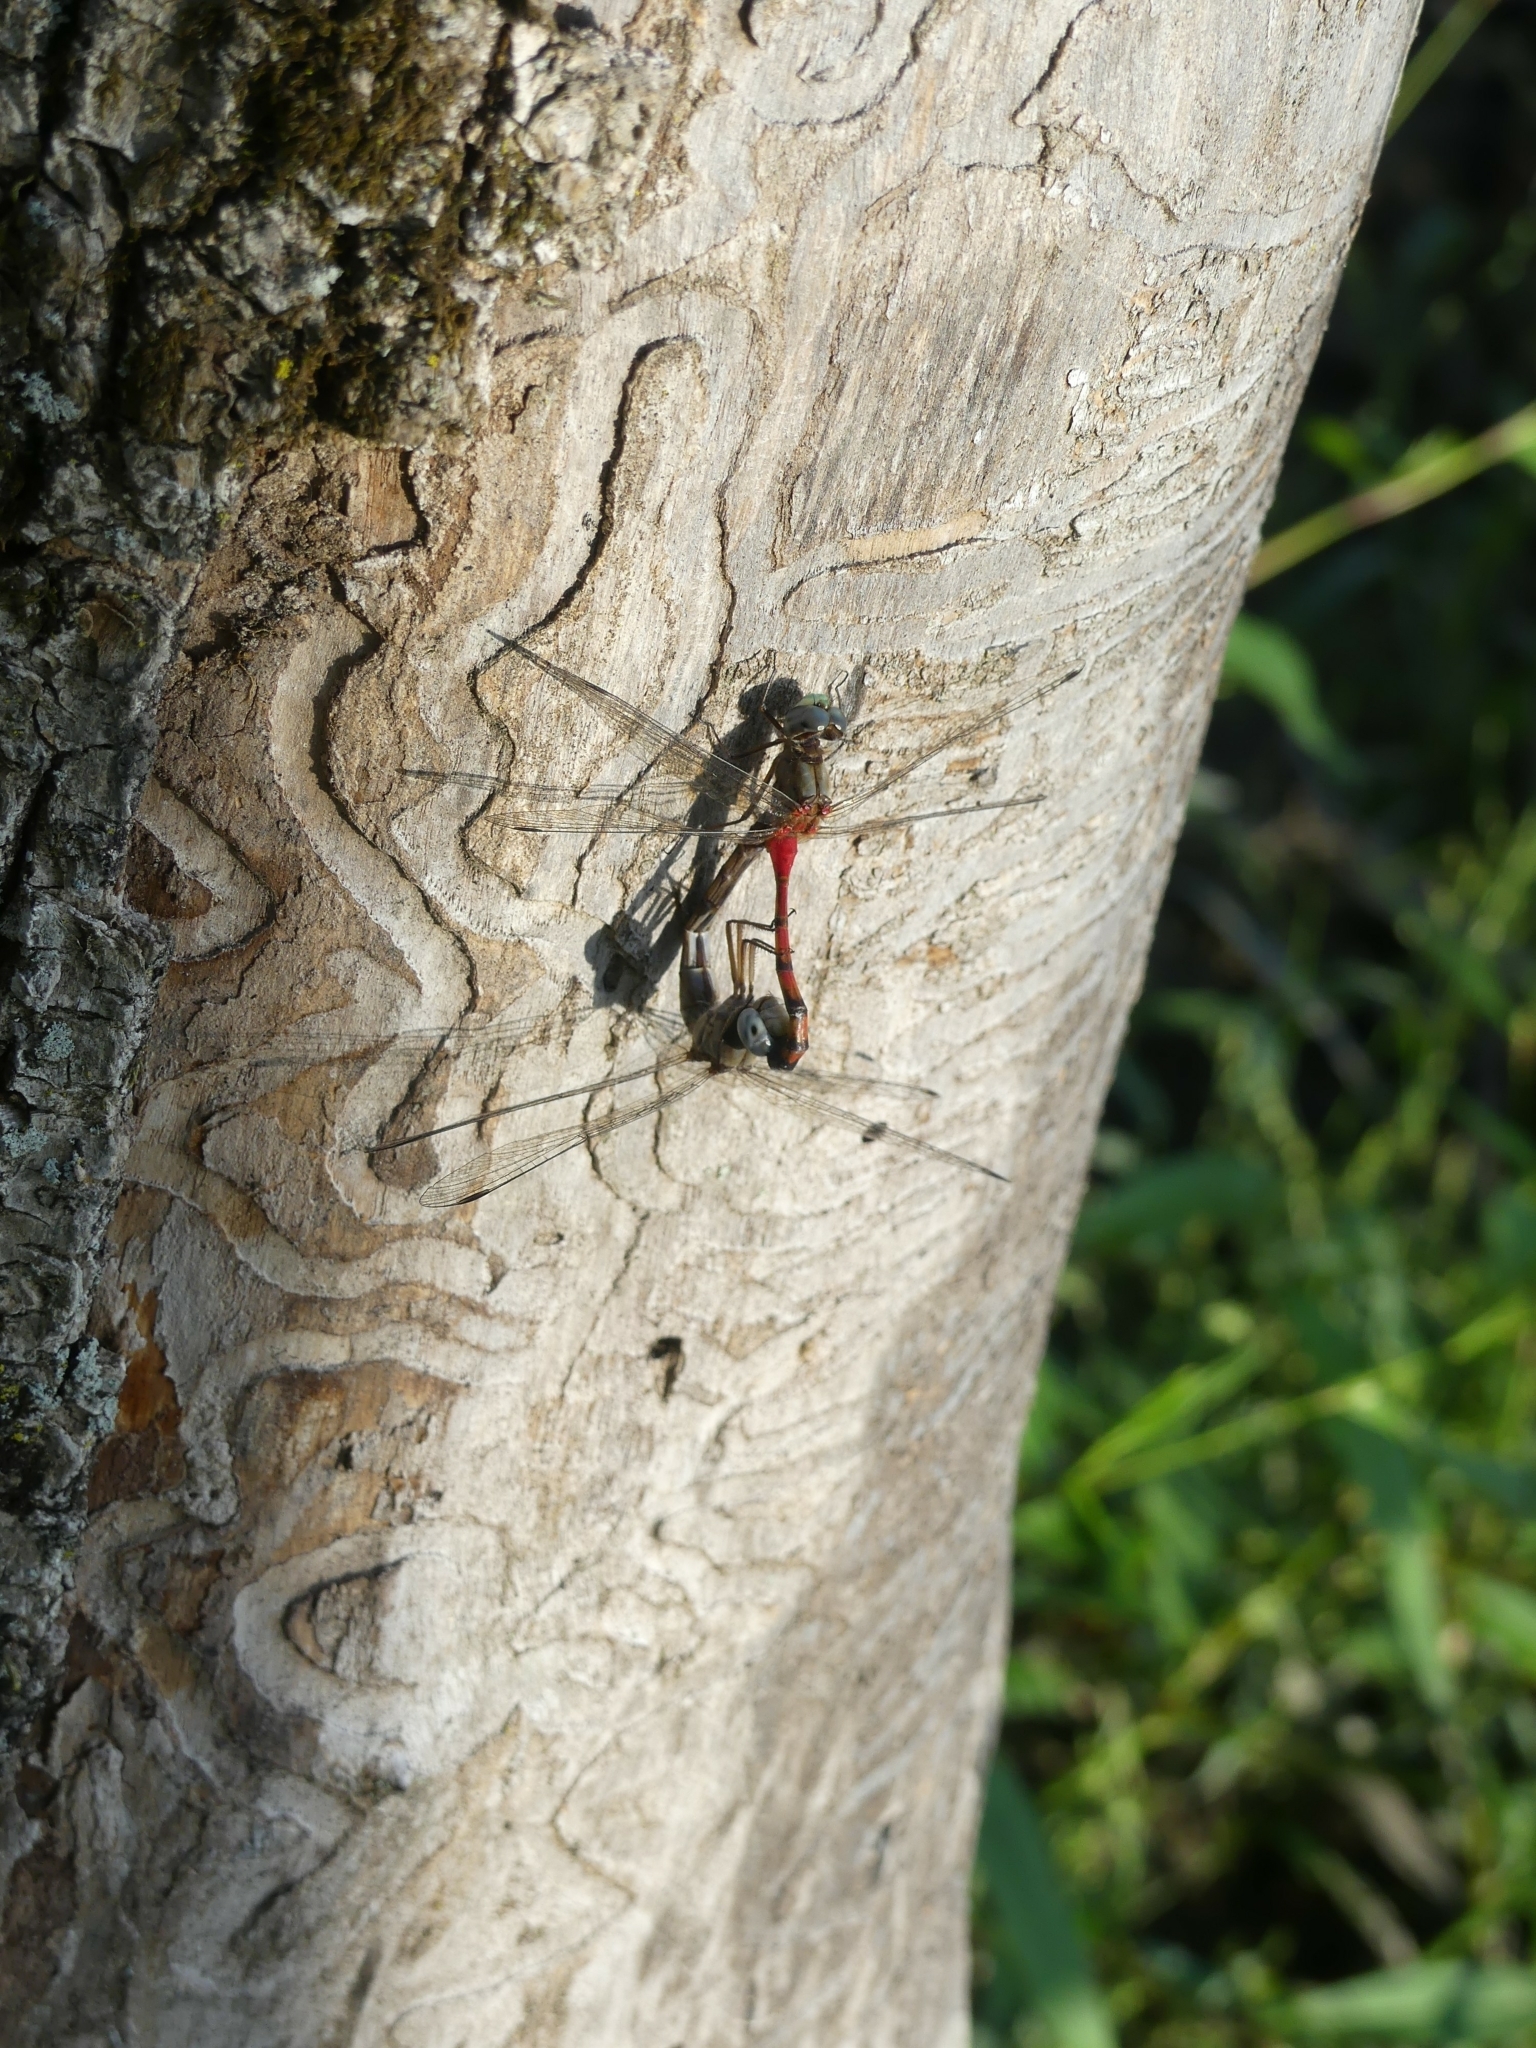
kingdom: Animalia
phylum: Arthropoda
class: Insecta
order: Odonata
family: Libellulidae
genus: Sympetrum
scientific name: Sympetrum ambiguum
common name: Blue-faced meadowhawk
